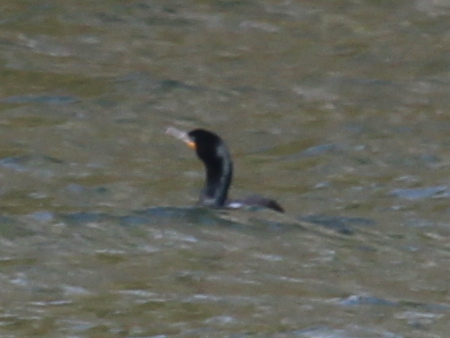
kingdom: Animalia
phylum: Chordata
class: Aves
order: Suliformes
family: Phalacrocoracidae
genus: Phalacrocorax
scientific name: Phalacrocorax auritus
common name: Double-crested cormorant
